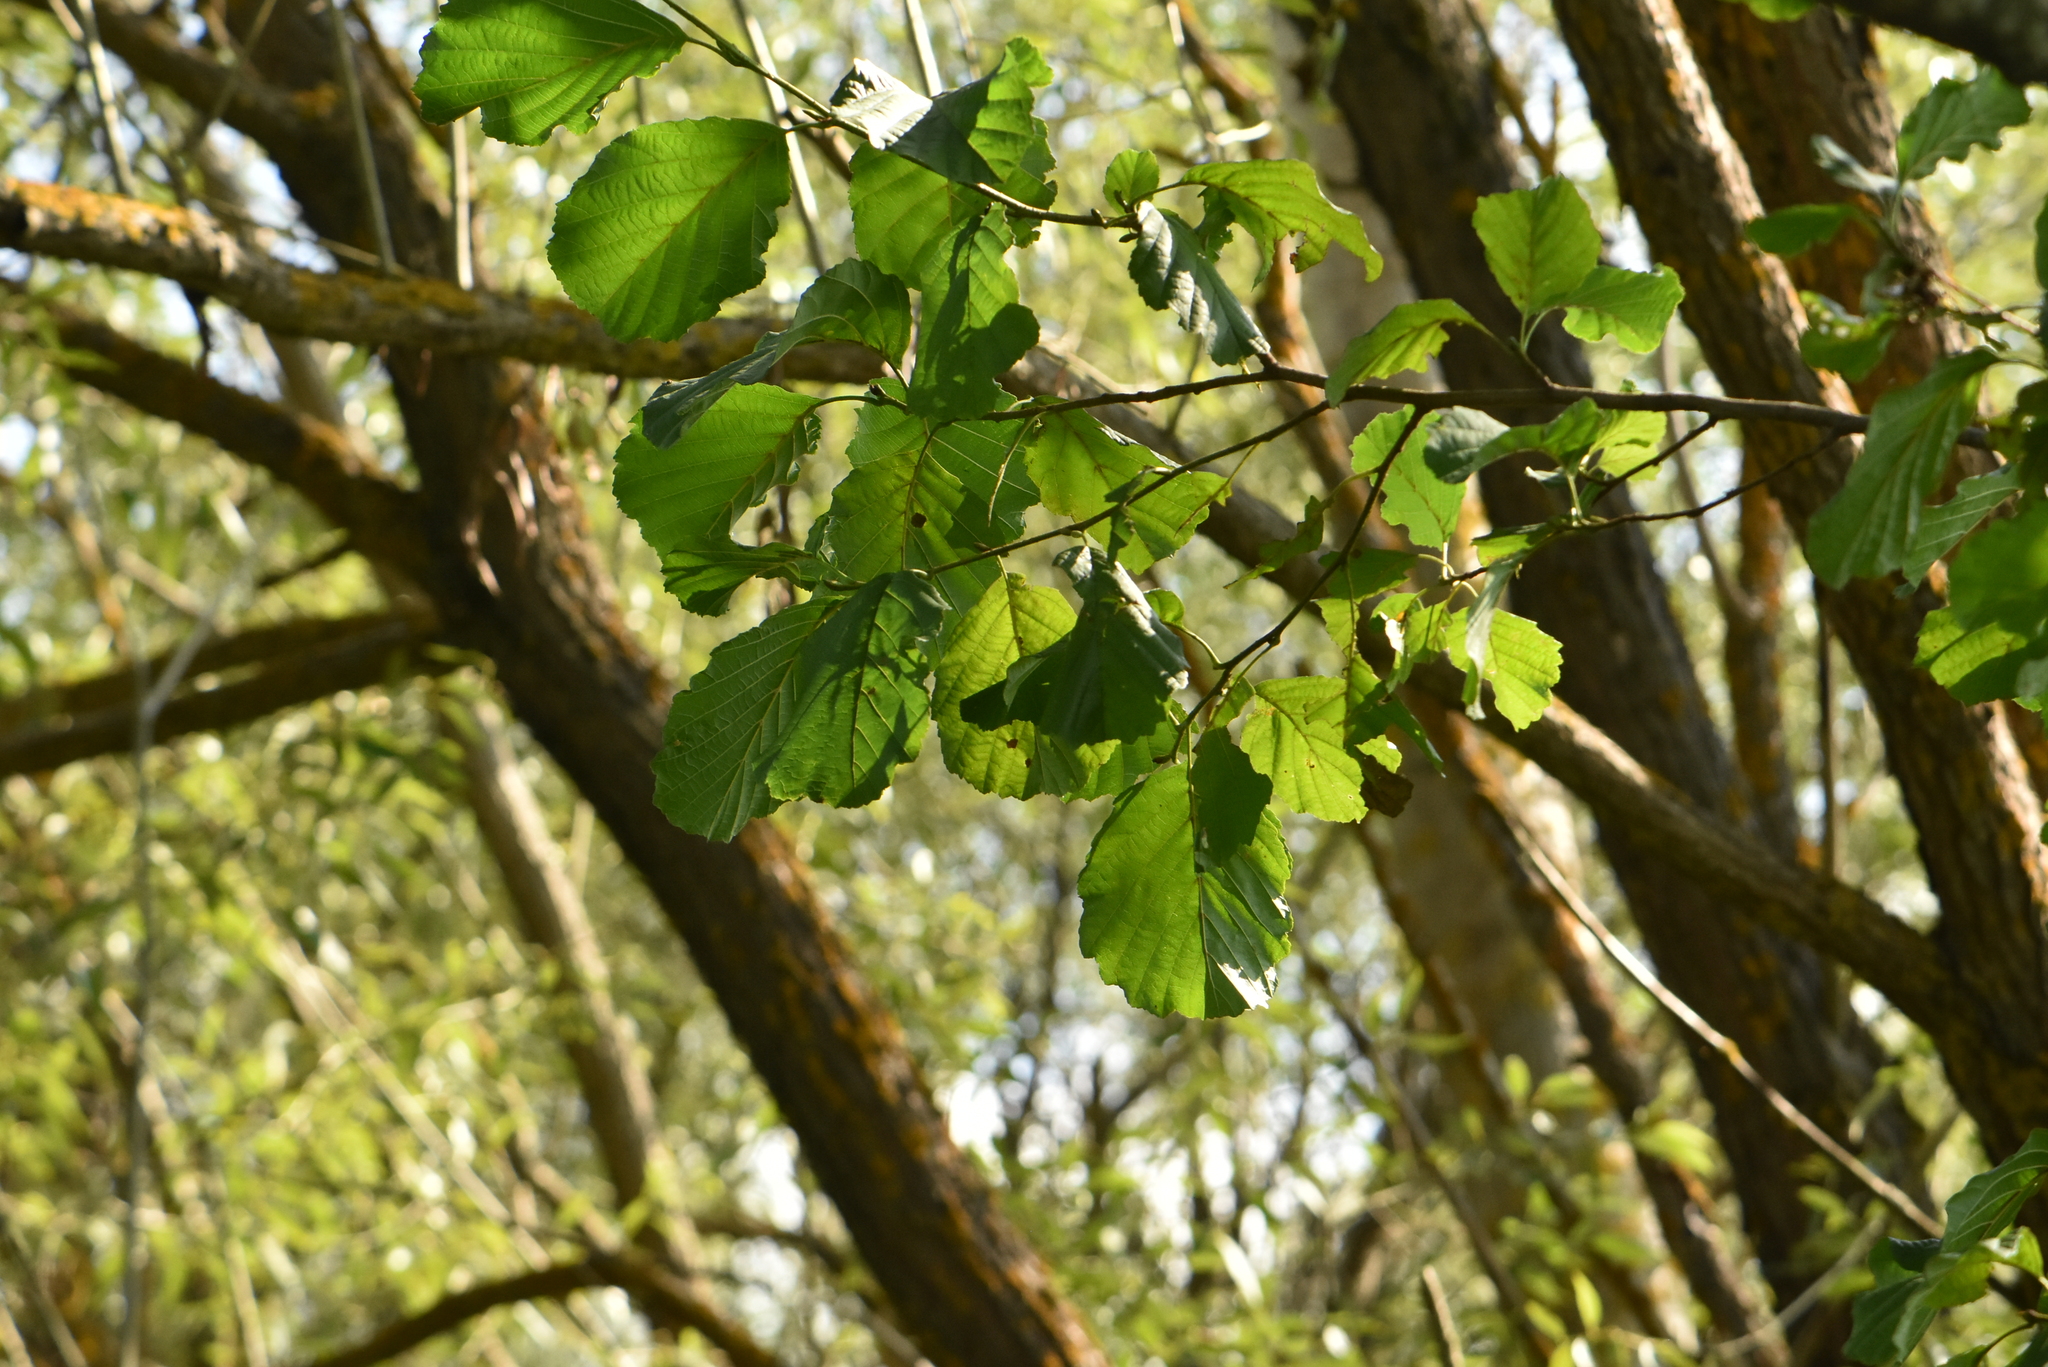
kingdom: Plantae
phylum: Tracheophyta
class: Magnoliopsida
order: Fagales
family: Betulaceae
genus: Alnus
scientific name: Alnus glutinosa
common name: Black alder
